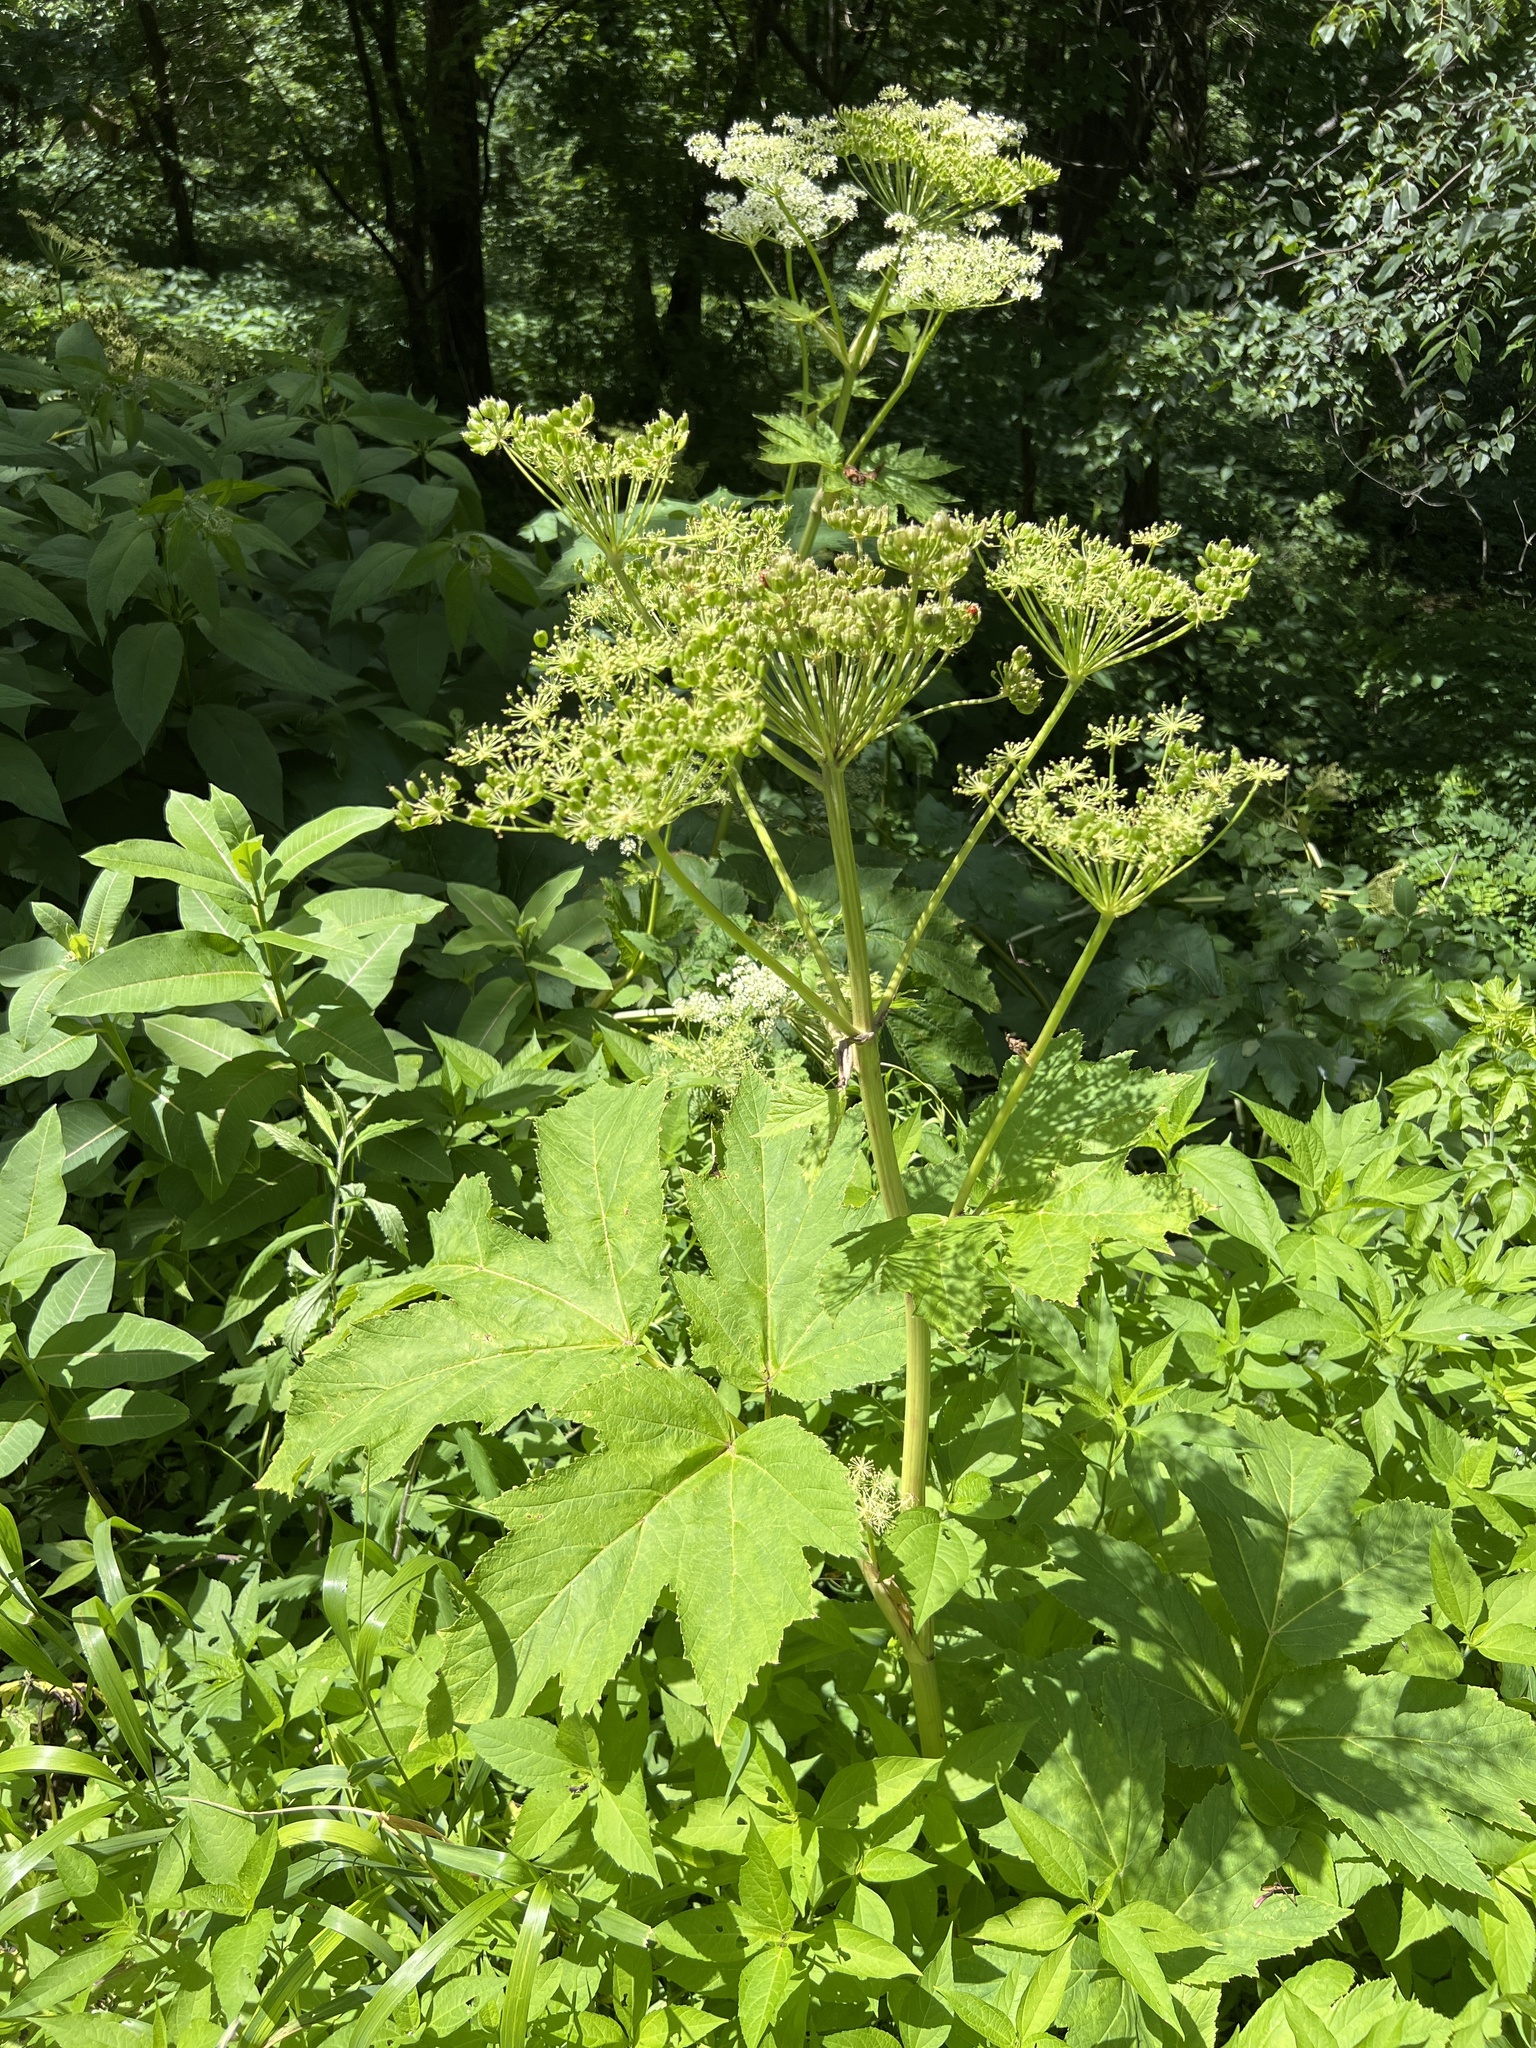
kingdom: Plantae
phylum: Tracheophyta
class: Magnoliopsida
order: Apiales
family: Apiaceae
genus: Heracleum
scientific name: Heracleum maximum
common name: American cow parsnip
